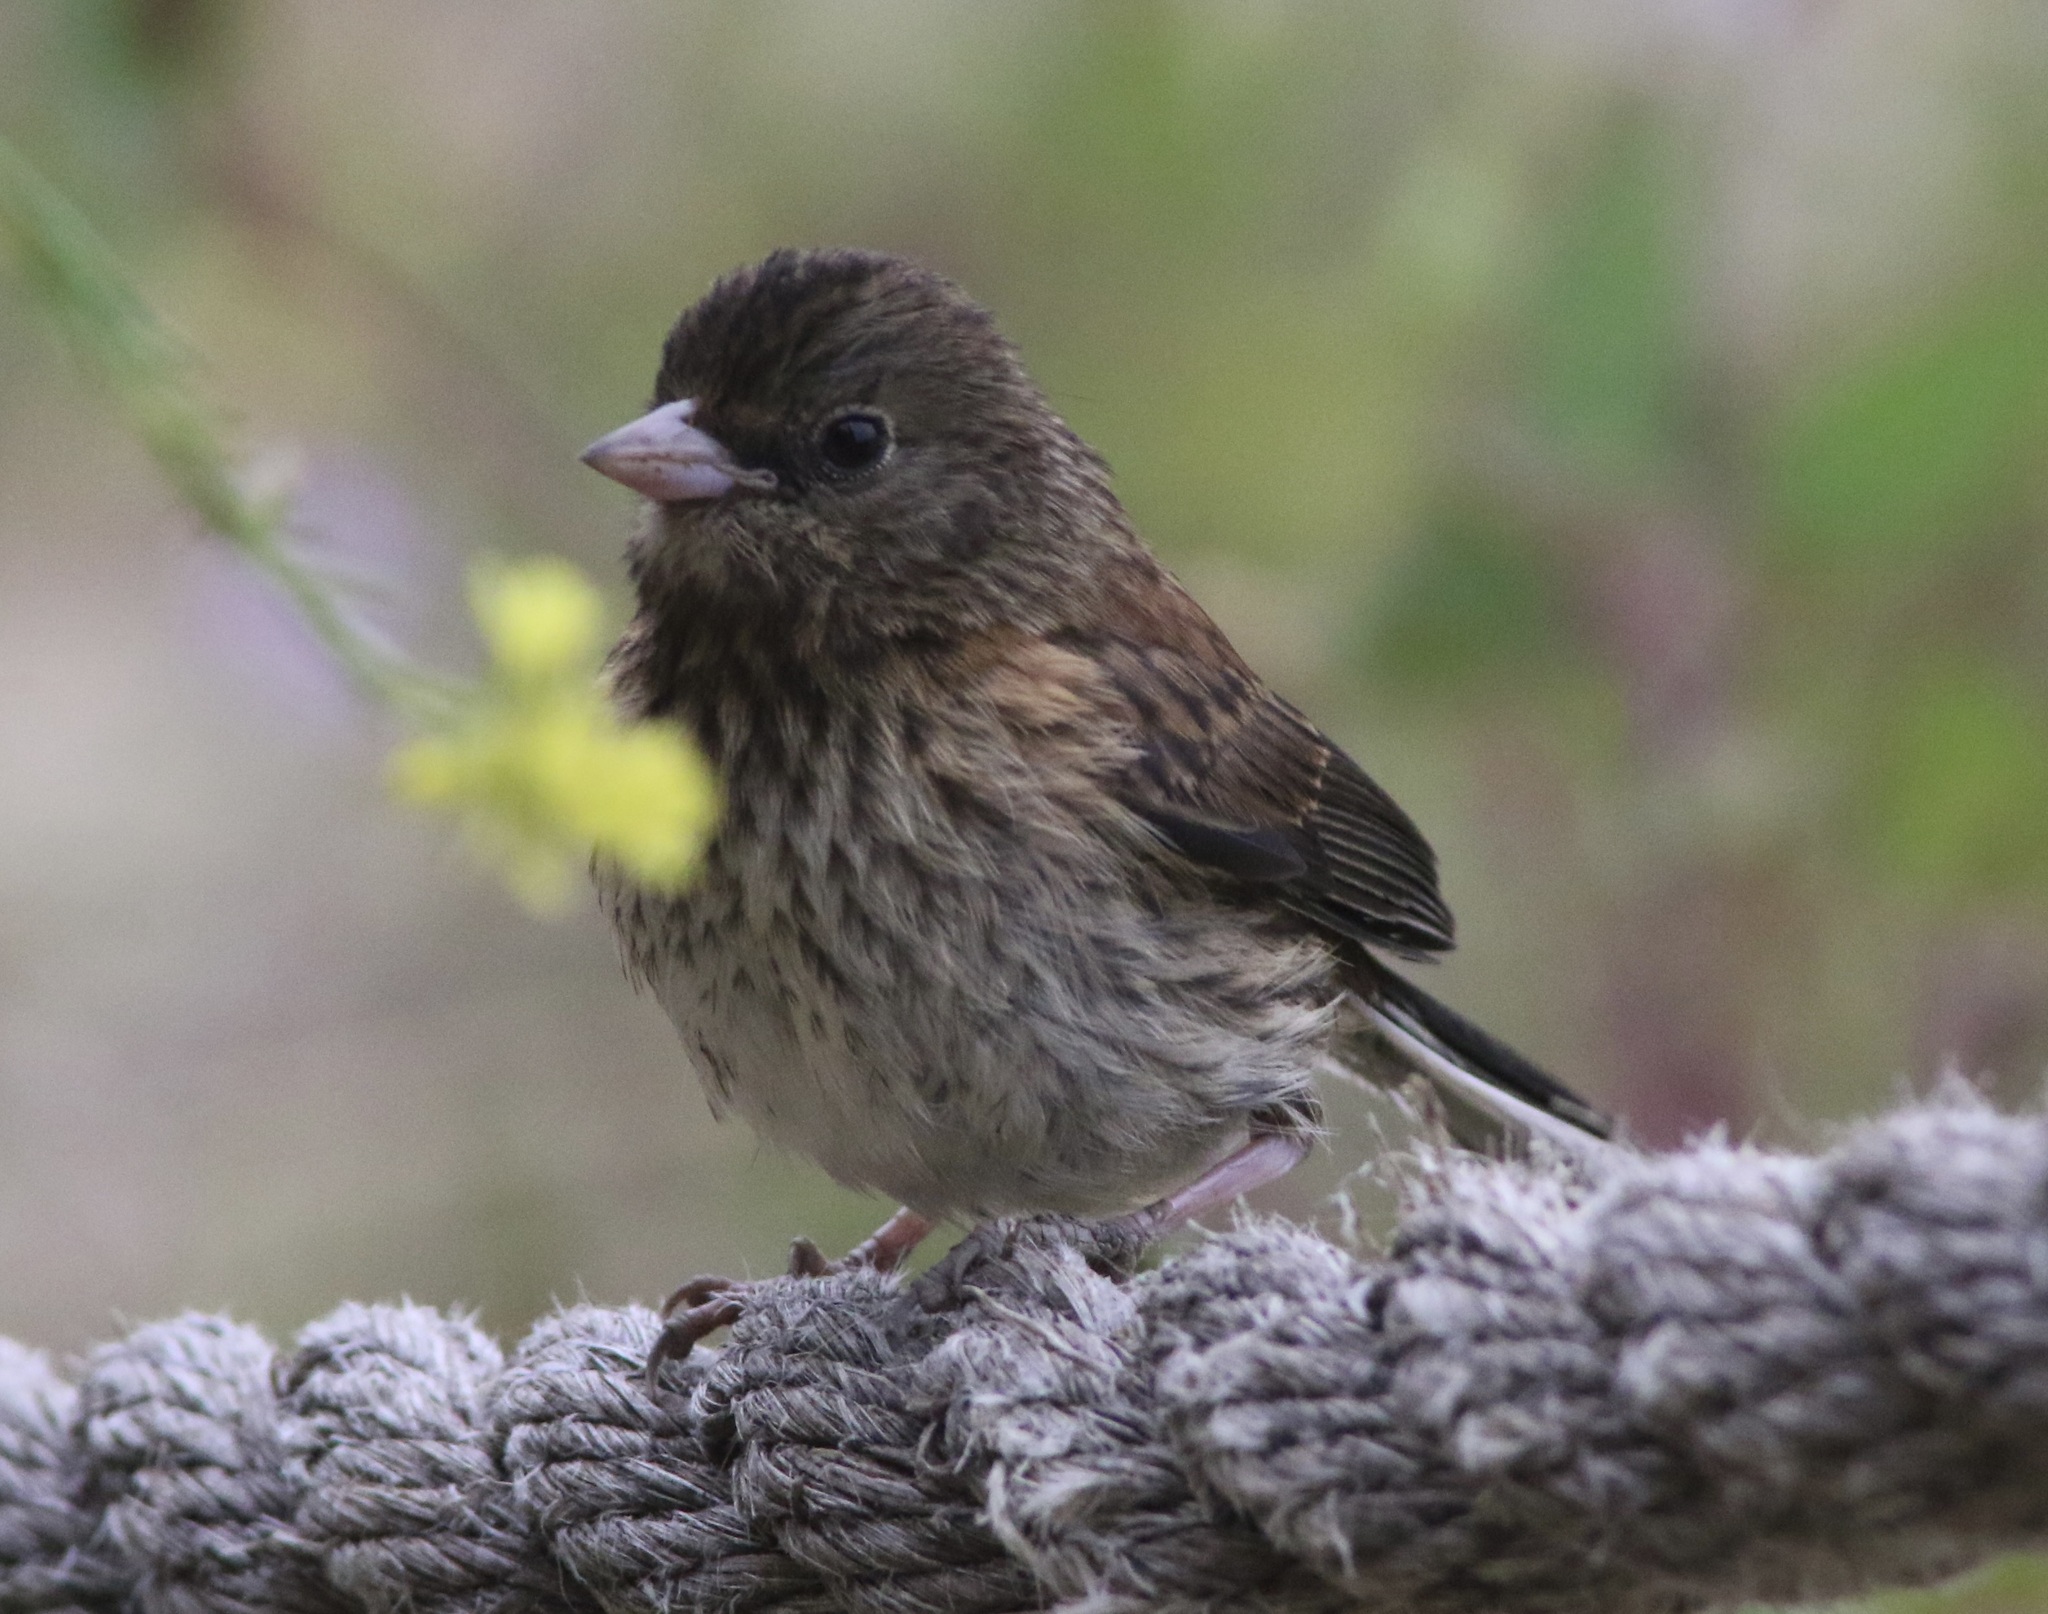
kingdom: Animalia
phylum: Chordata
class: Aves
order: Passeriformes
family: Passerellidae
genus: Junco
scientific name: Junco hyemalis
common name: Dark-eyed junco
